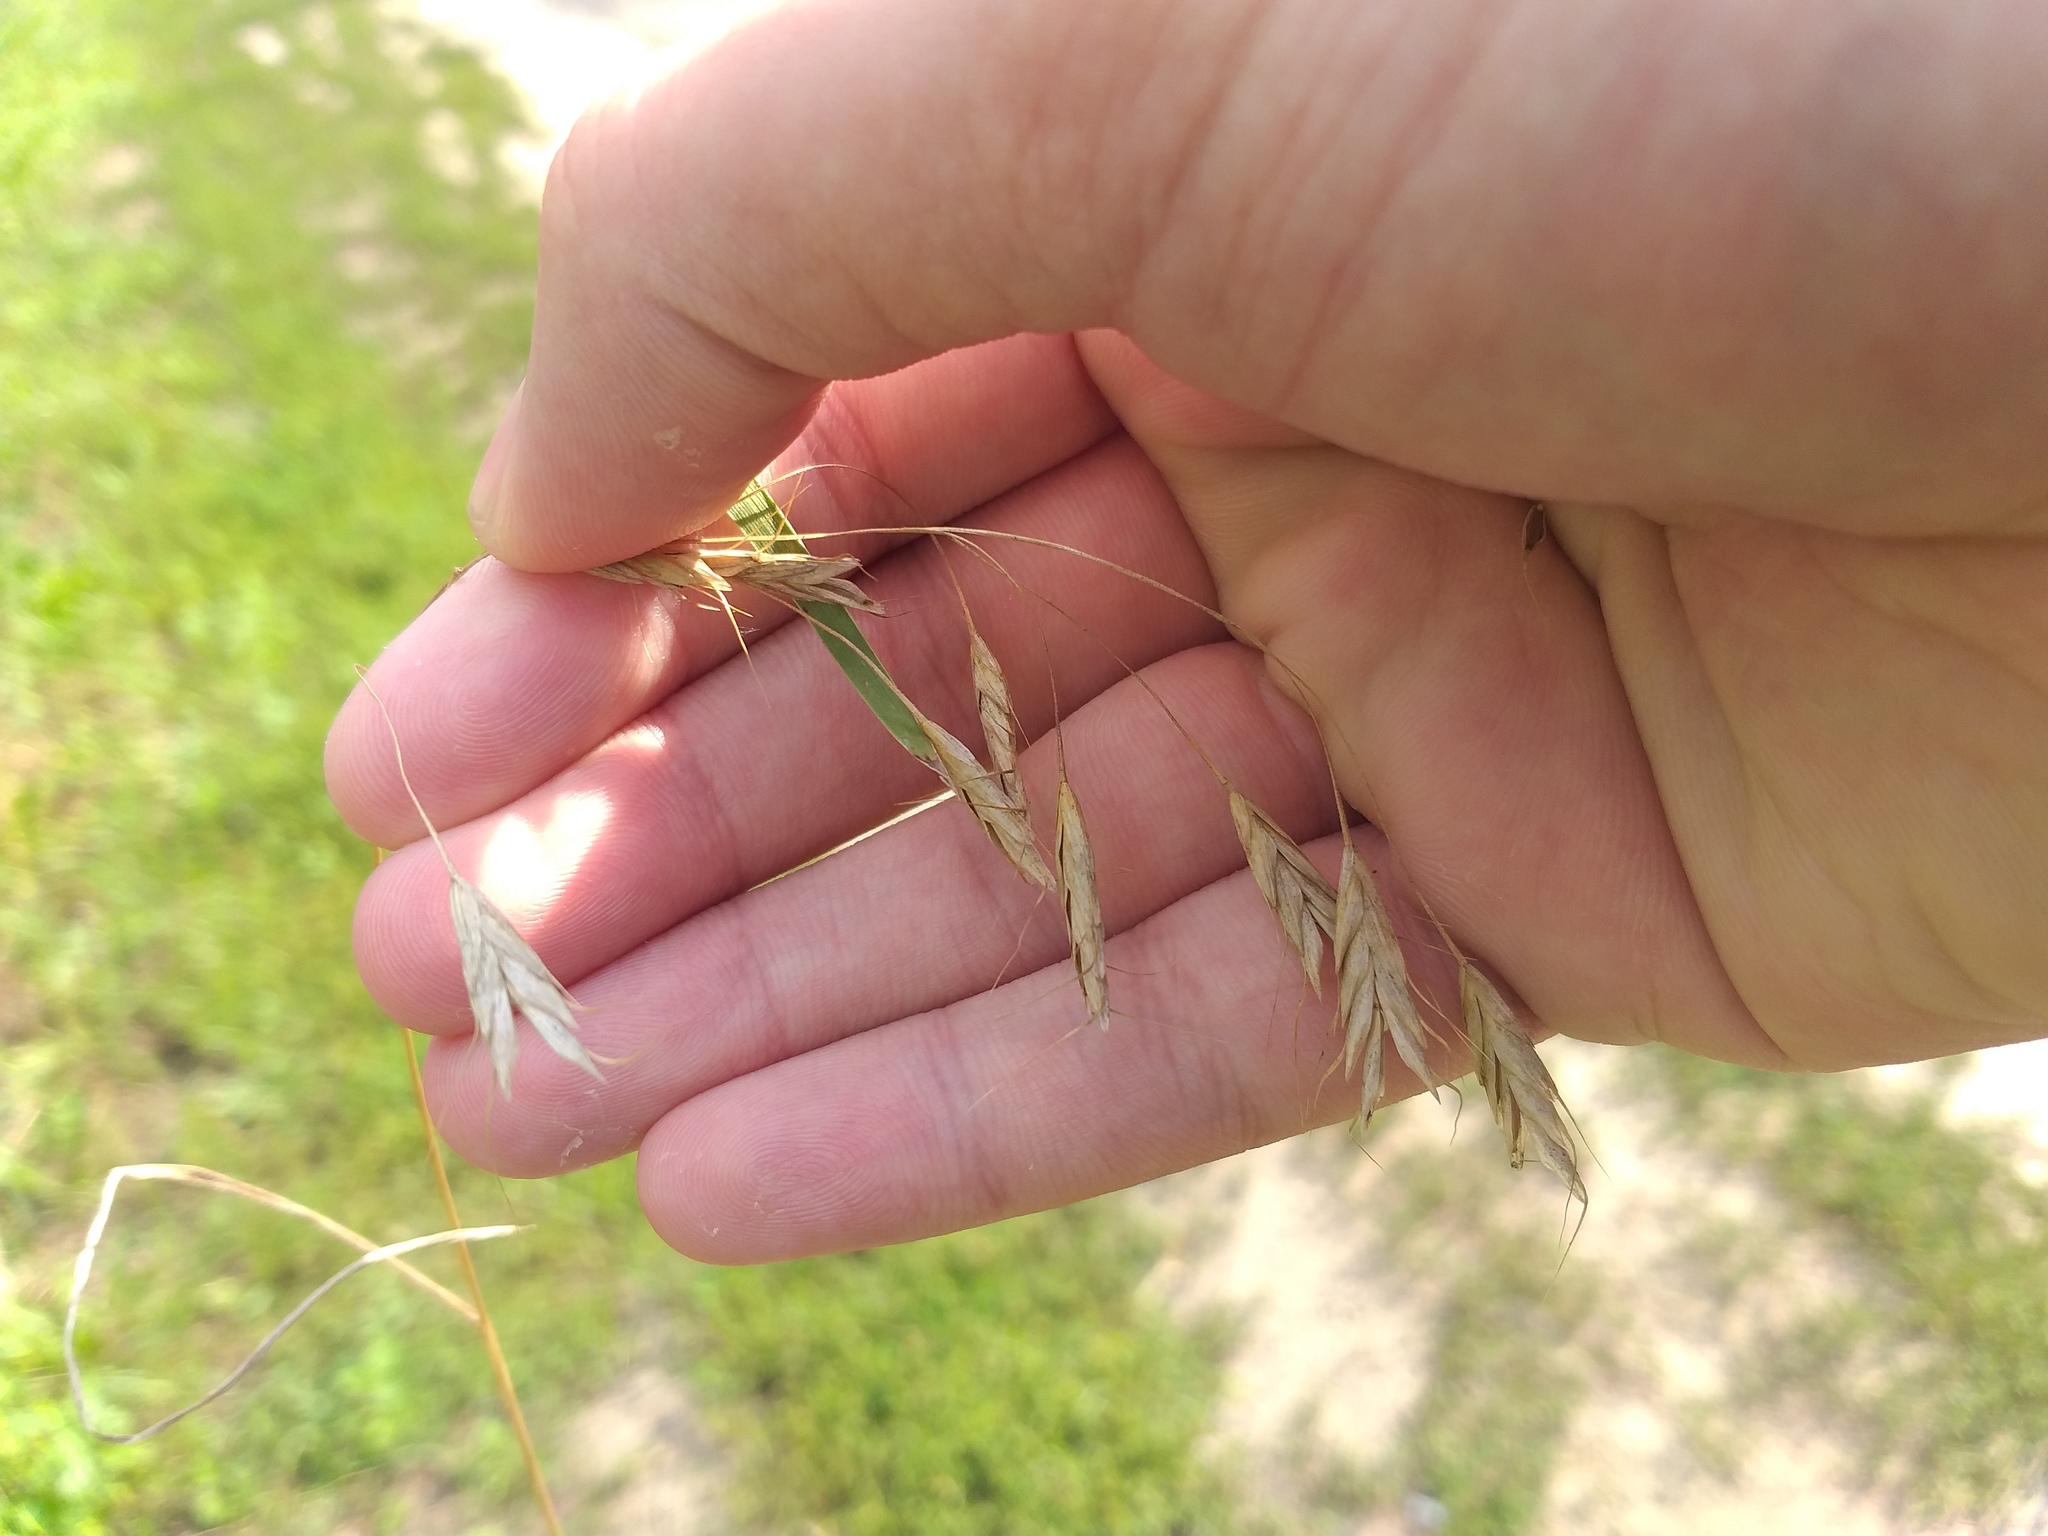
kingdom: Plantae
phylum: Tracheophyta
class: Liliopsida
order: Poales
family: Poaceae
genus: Bromus
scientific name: Bromus japonicus
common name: Japanese brome
